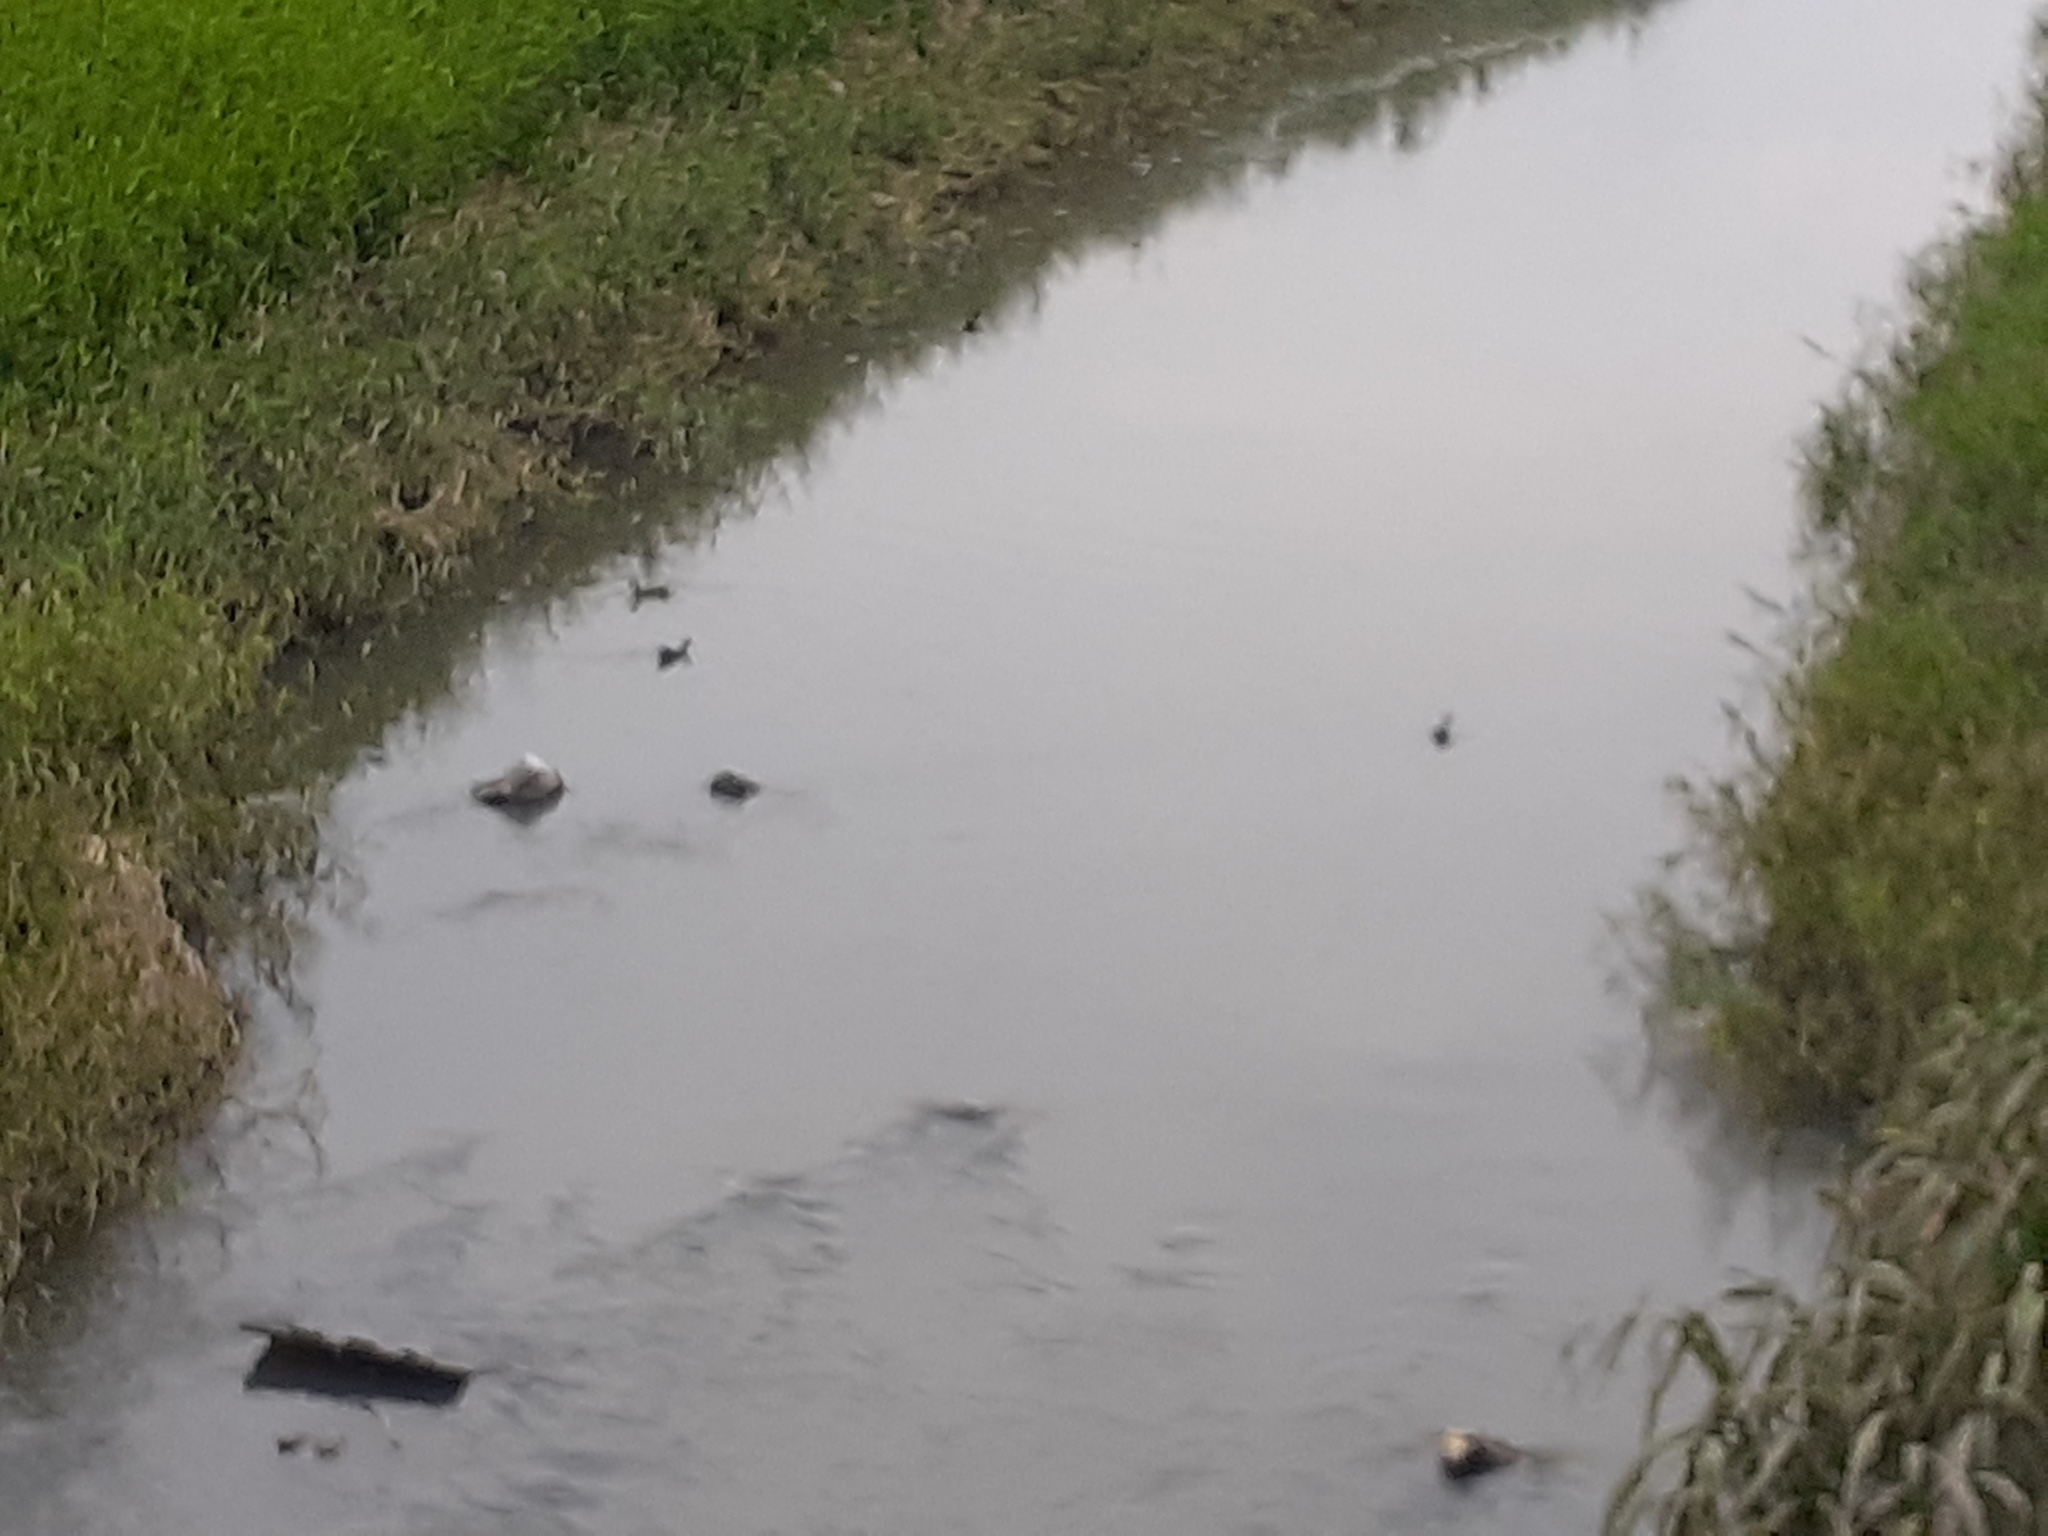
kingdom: Animalia
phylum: Chordata
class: Aves
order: Gruiformes
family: Rallidae
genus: Gallinula
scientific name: Gallinula chloropus
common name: Common moorhen
